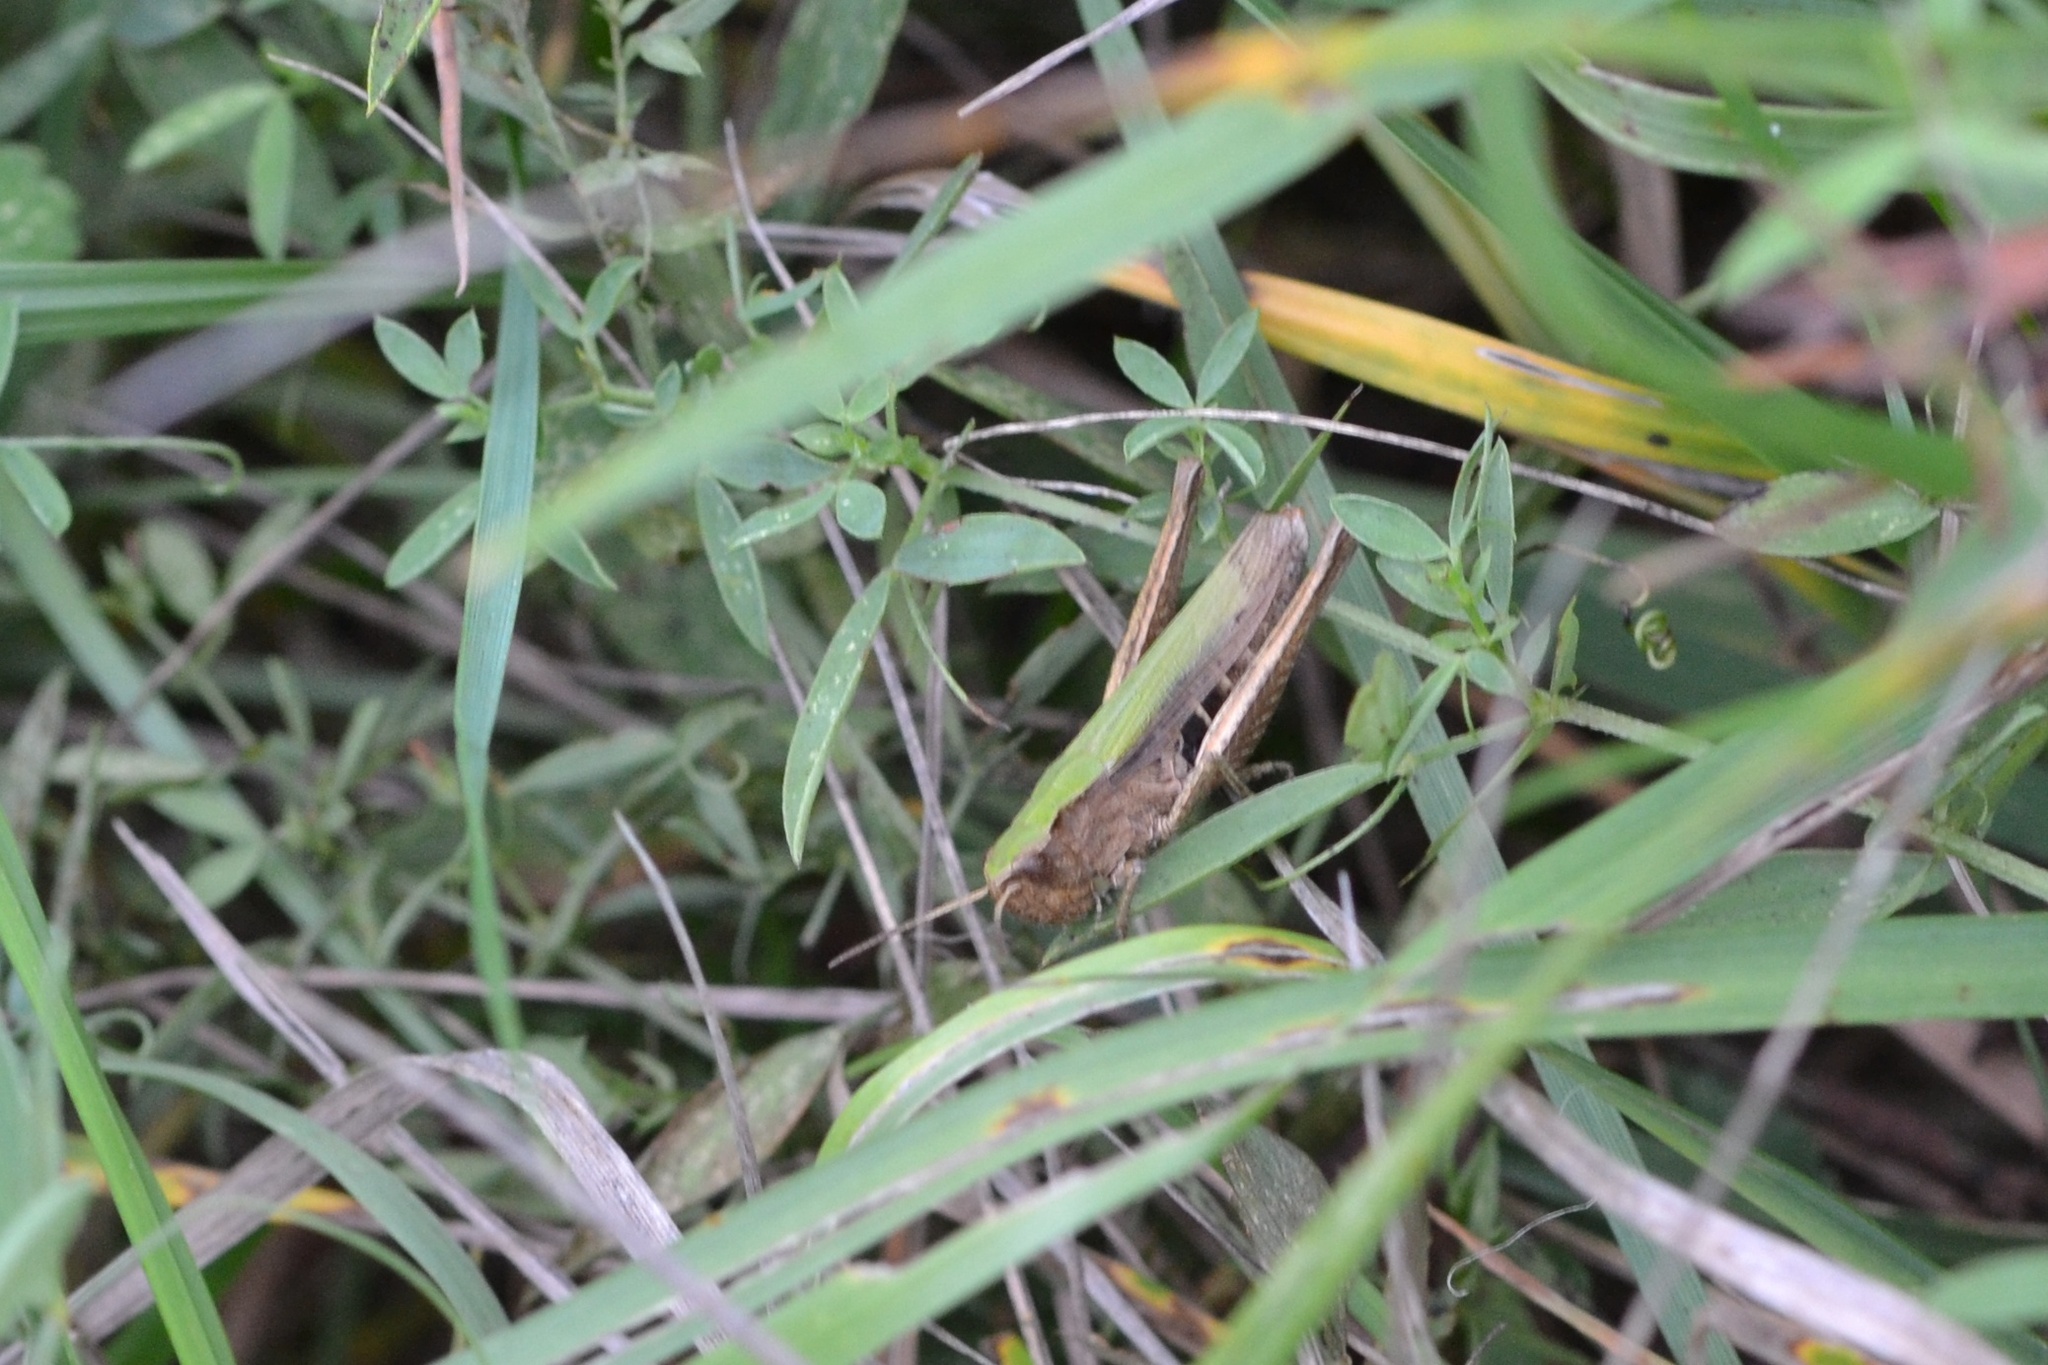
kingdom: Animalia
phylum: Arthropoda
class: Insecta
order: Orthoptera
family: Acrididae
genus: Chorthippus
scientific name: Chorthippus dorsatus
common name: Steppe grasshopper
